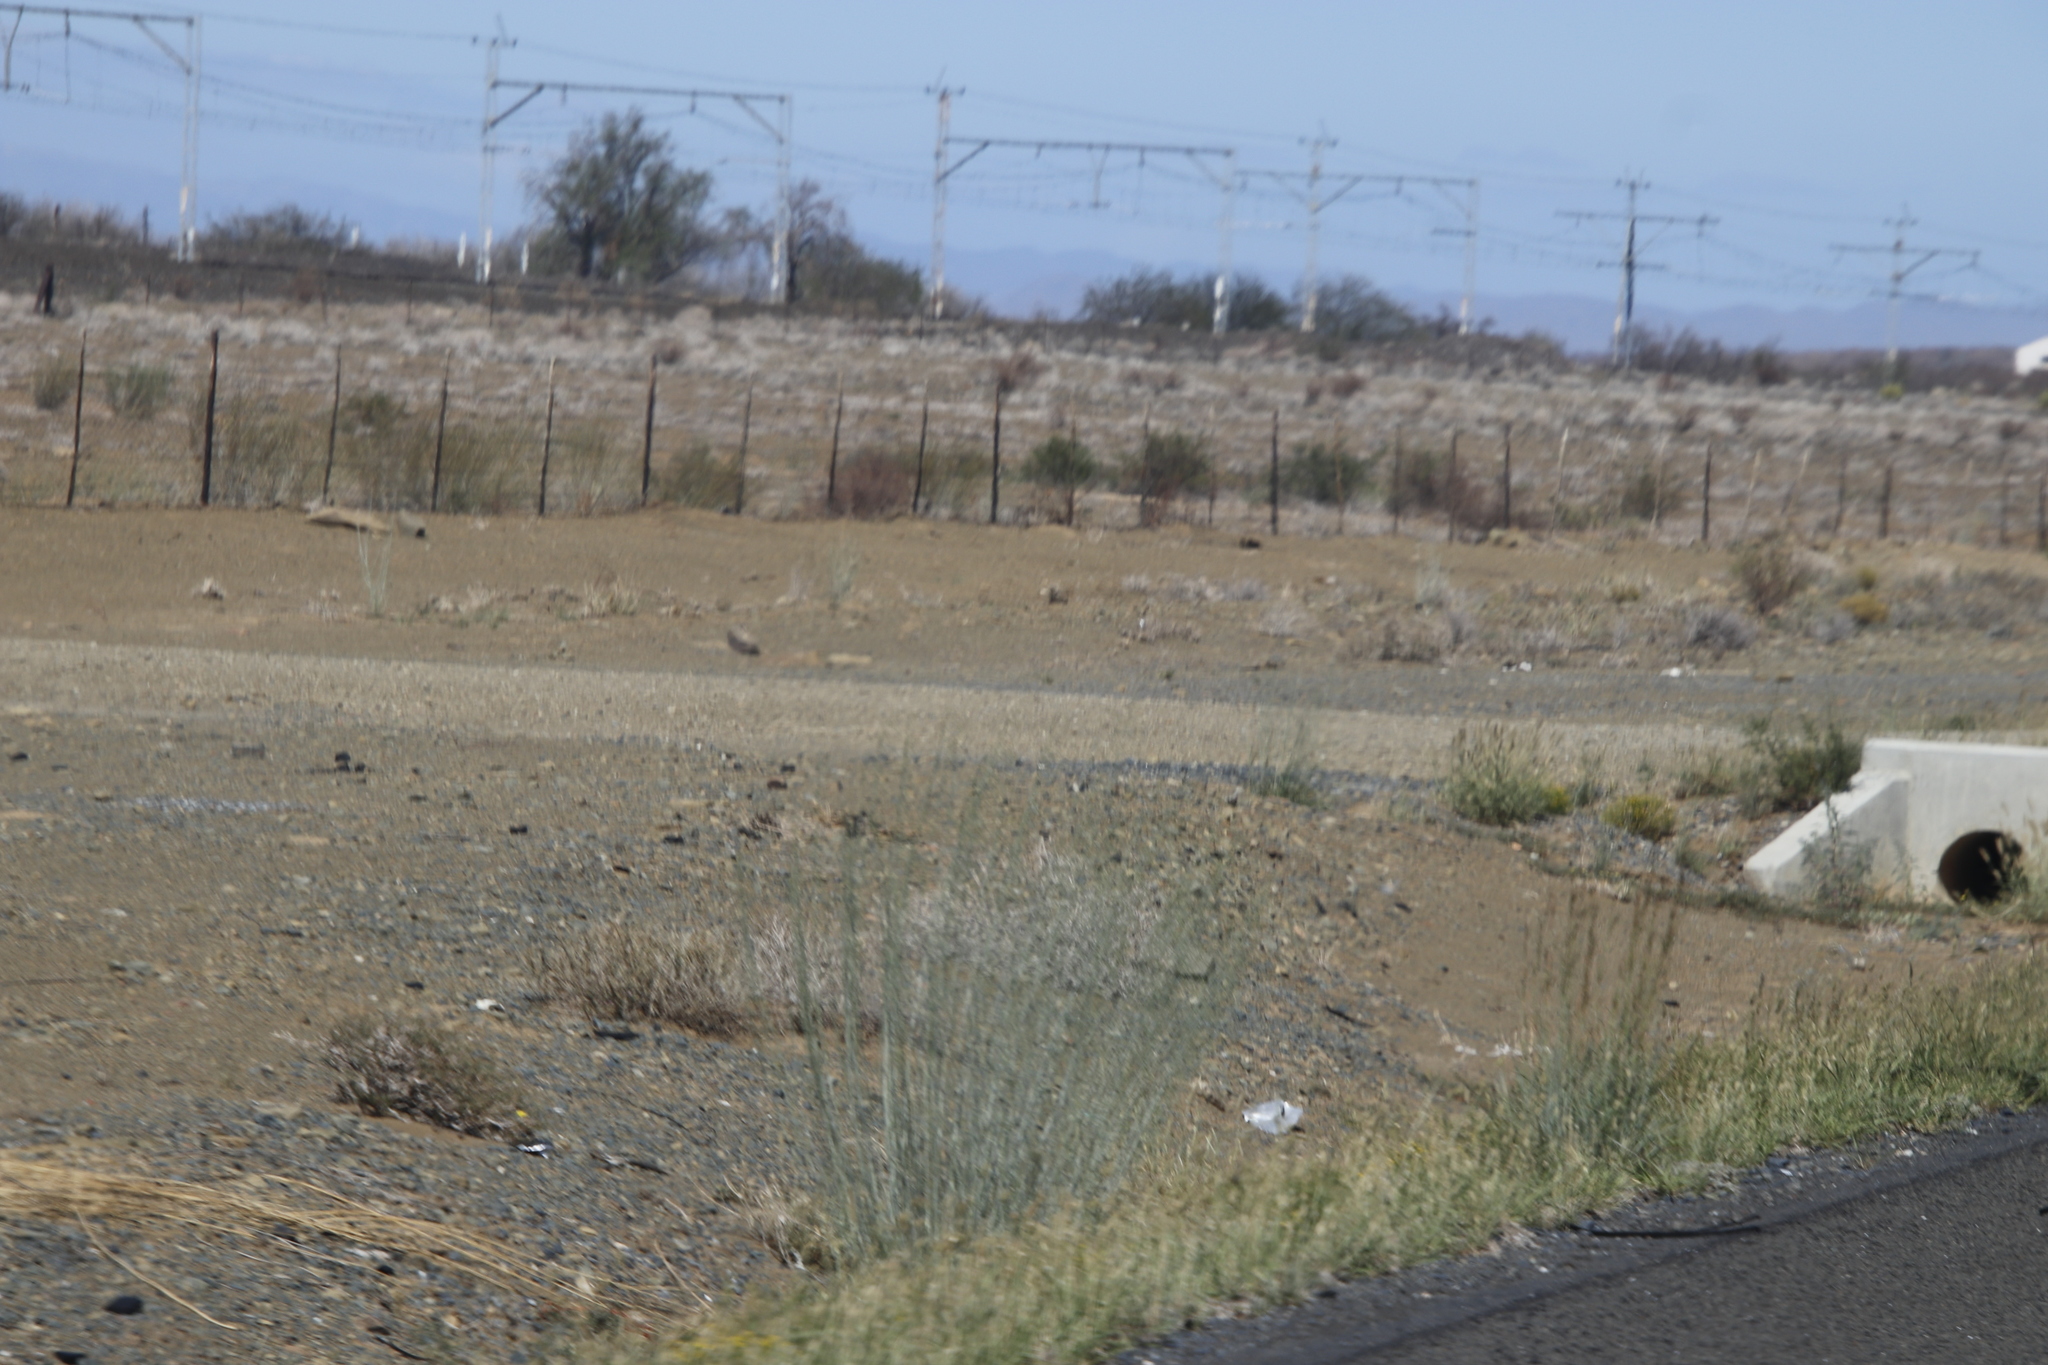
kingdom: Plantae
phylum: Tracheophyta
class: Magnoliopsida
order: Gentianales
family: Apocynaceae
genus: Gomphocarpus
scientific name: Gomphocarpus filiformis
